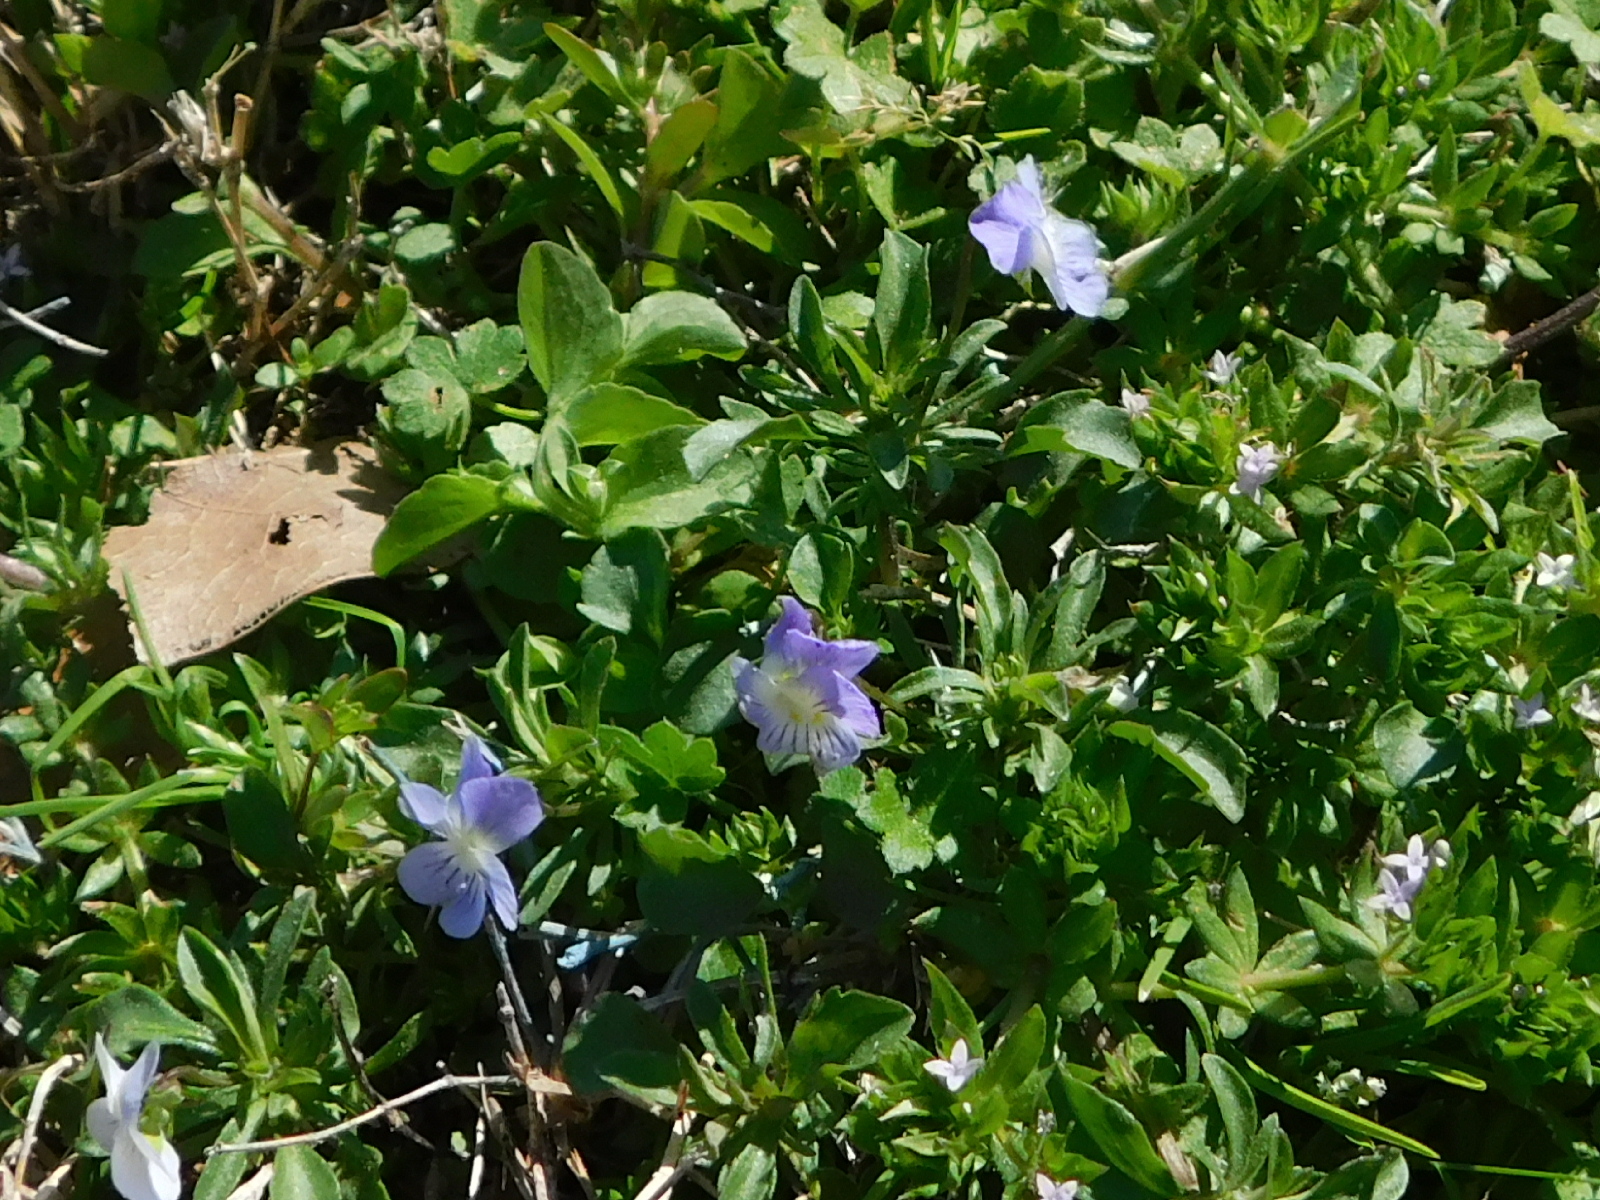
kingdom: Plantae
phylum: Tracheophyta
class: Magnoliopsida
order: Malpighiales
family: Violaceae
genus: Viola
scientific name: Viola rafinesquei
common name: American field pansy
